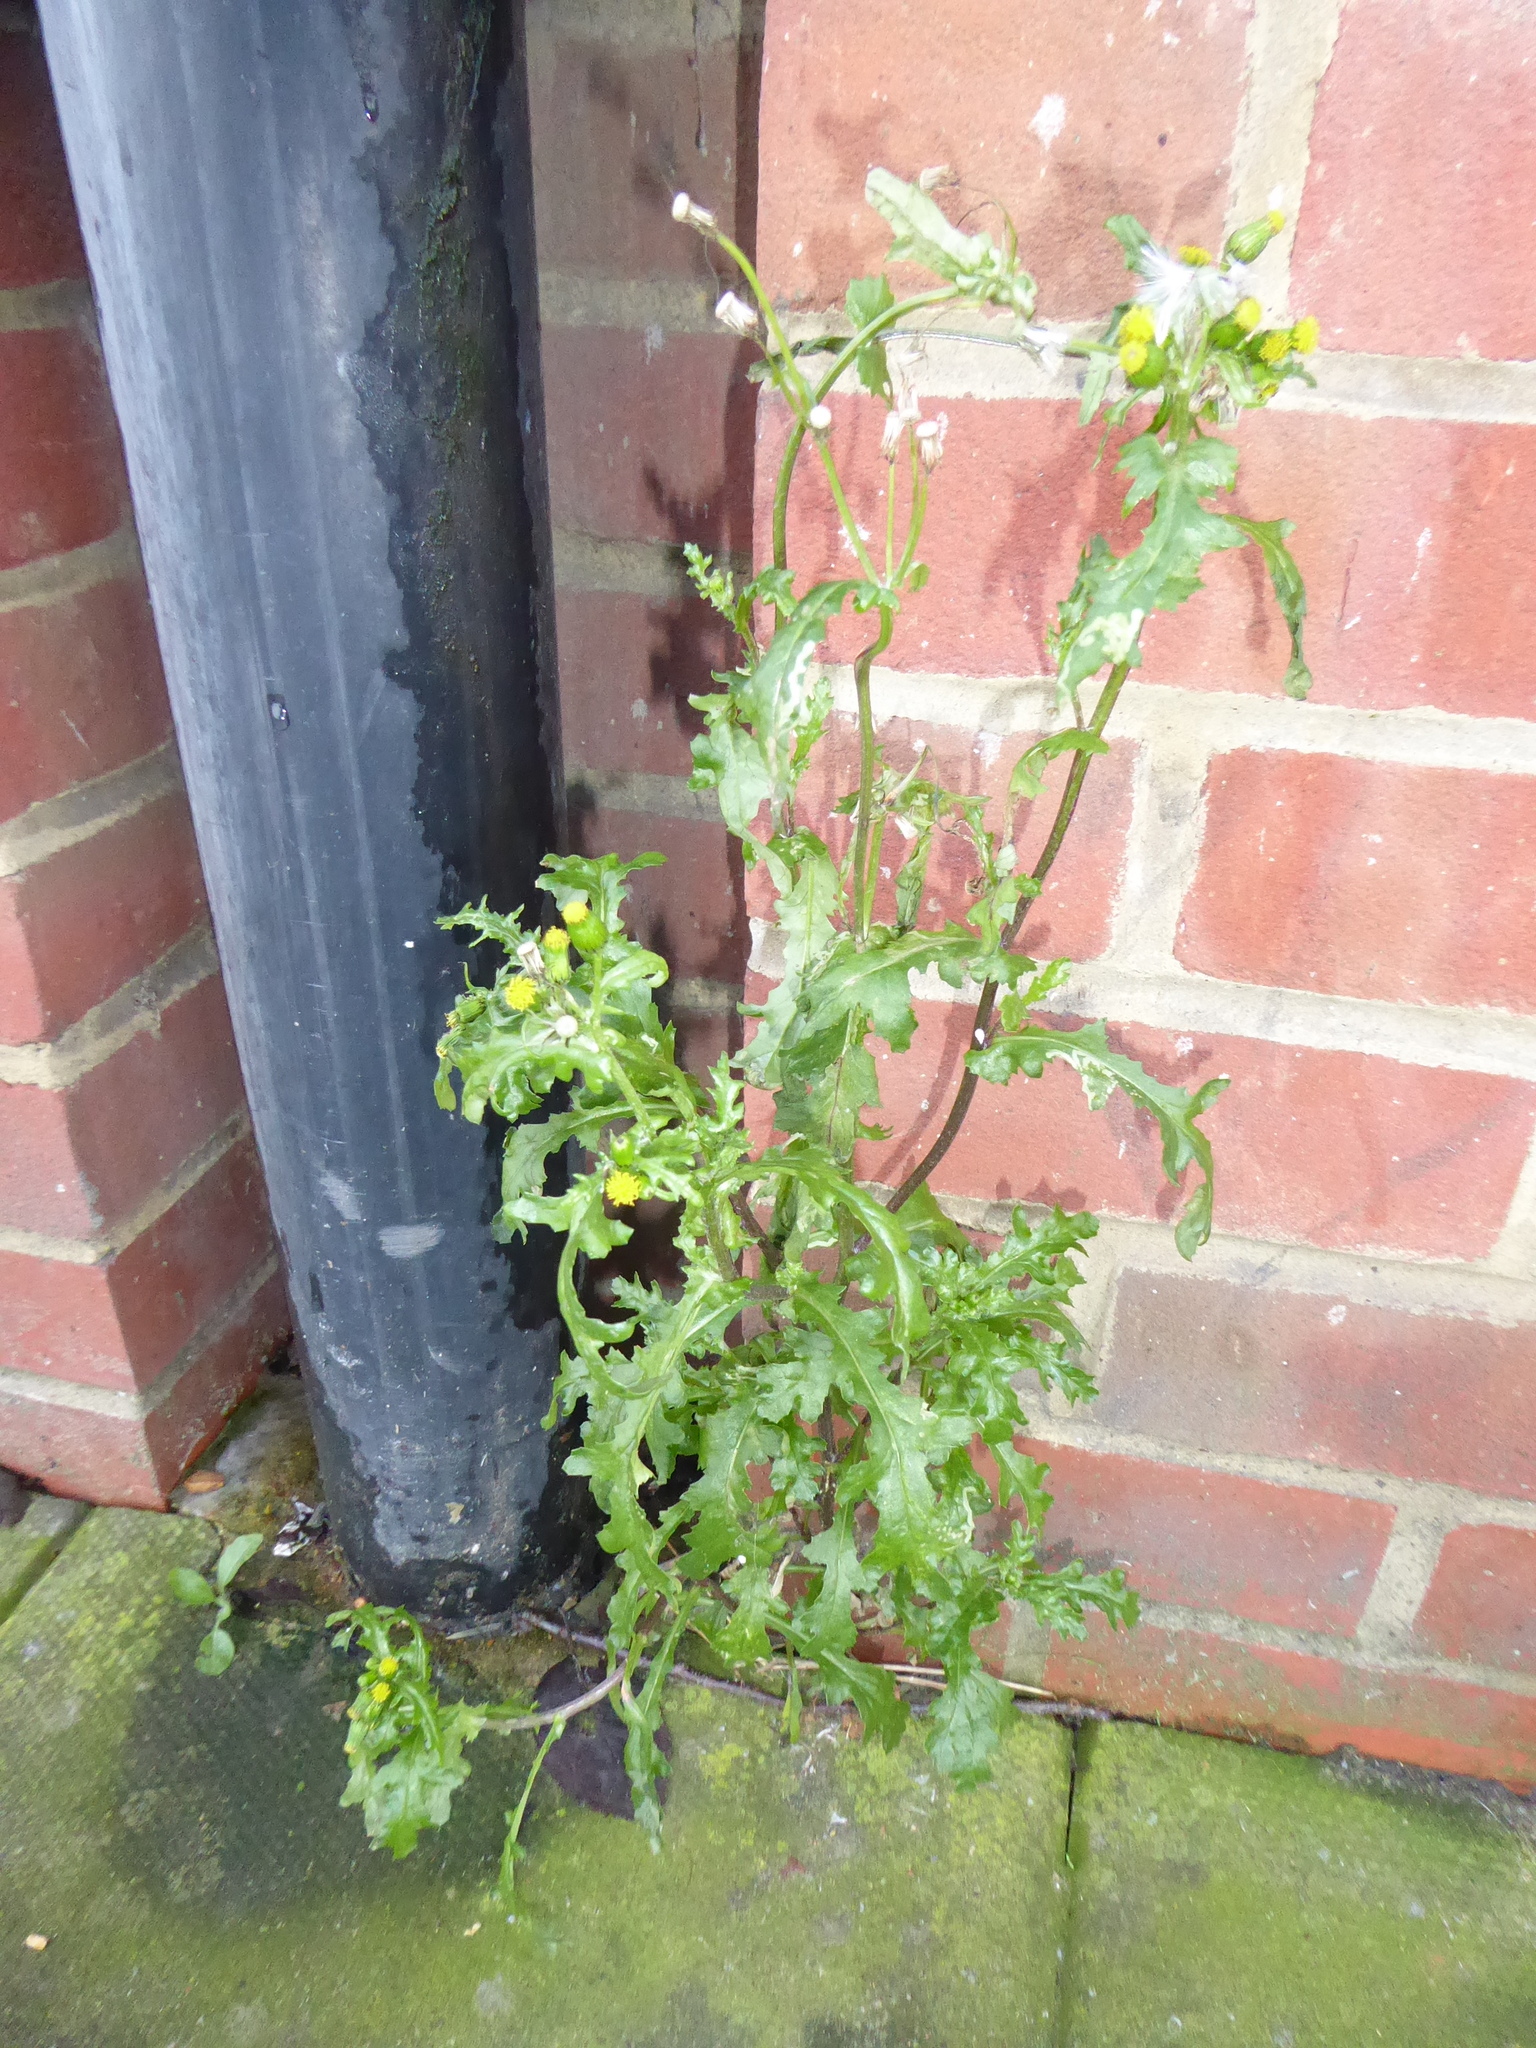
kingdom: Plantae
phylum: Tracheophyta
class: Magnoliopsida
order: Asterales
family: Asteraceae
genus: Senecio
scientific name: Senecio vulgaris
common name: Old-man-in-the-spring
